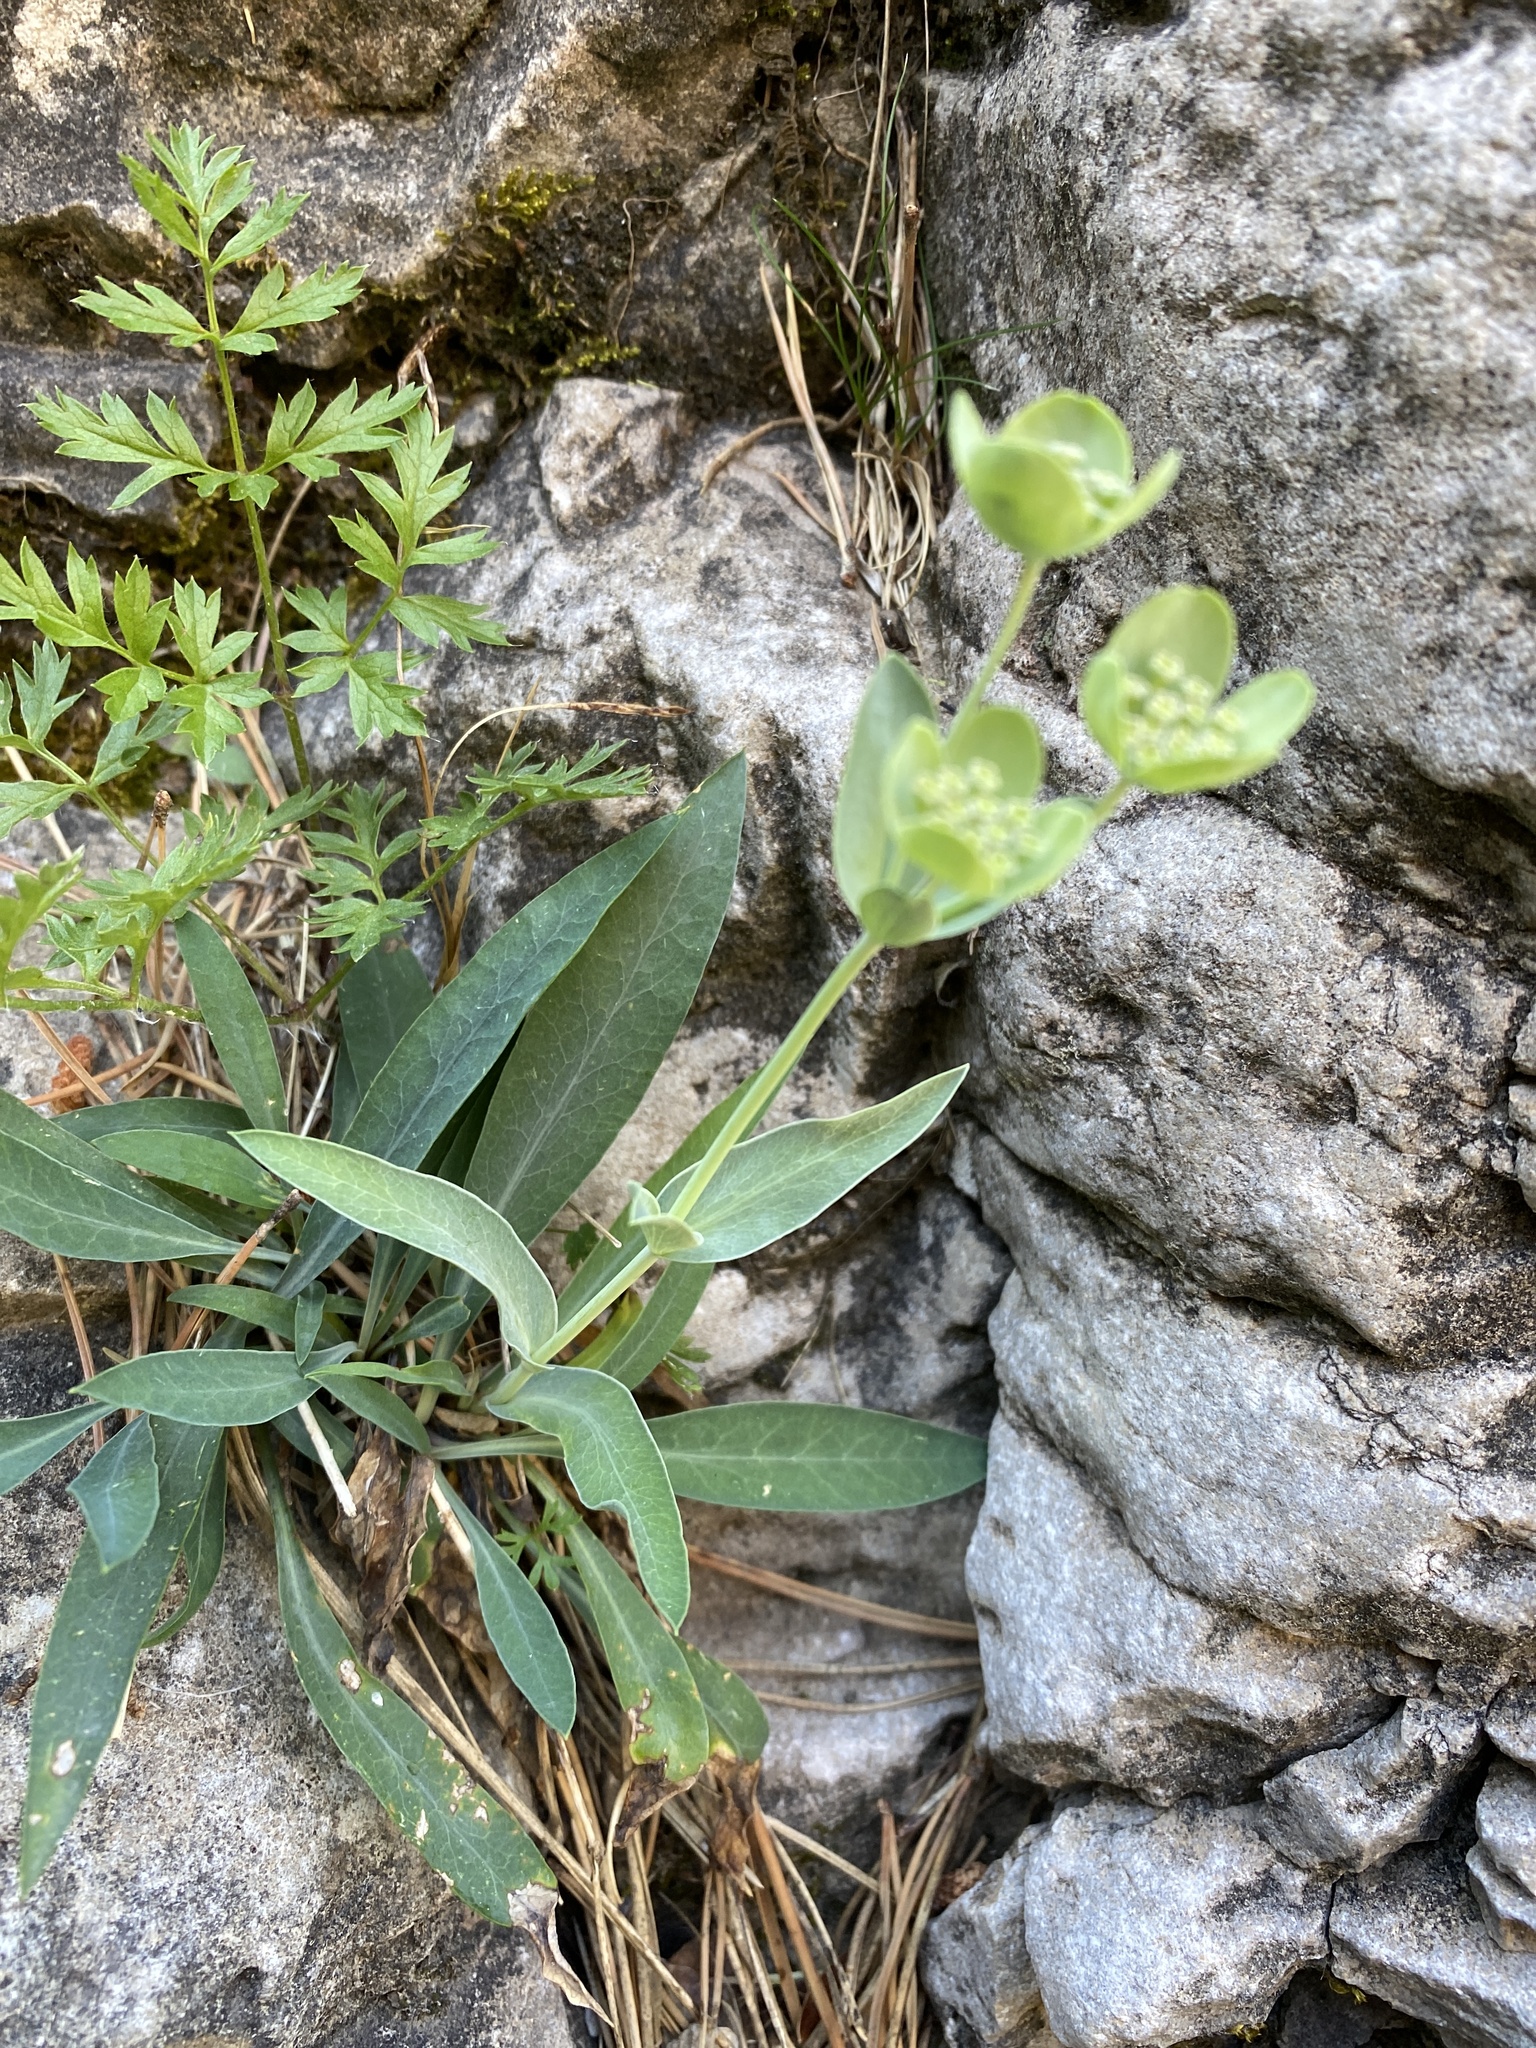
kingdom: Plantae
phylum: Tracheophyta
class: Magnoliopsida
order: Apiales
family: Apiaceae
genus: Bupleurum
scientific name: Bupleurum angulosum
